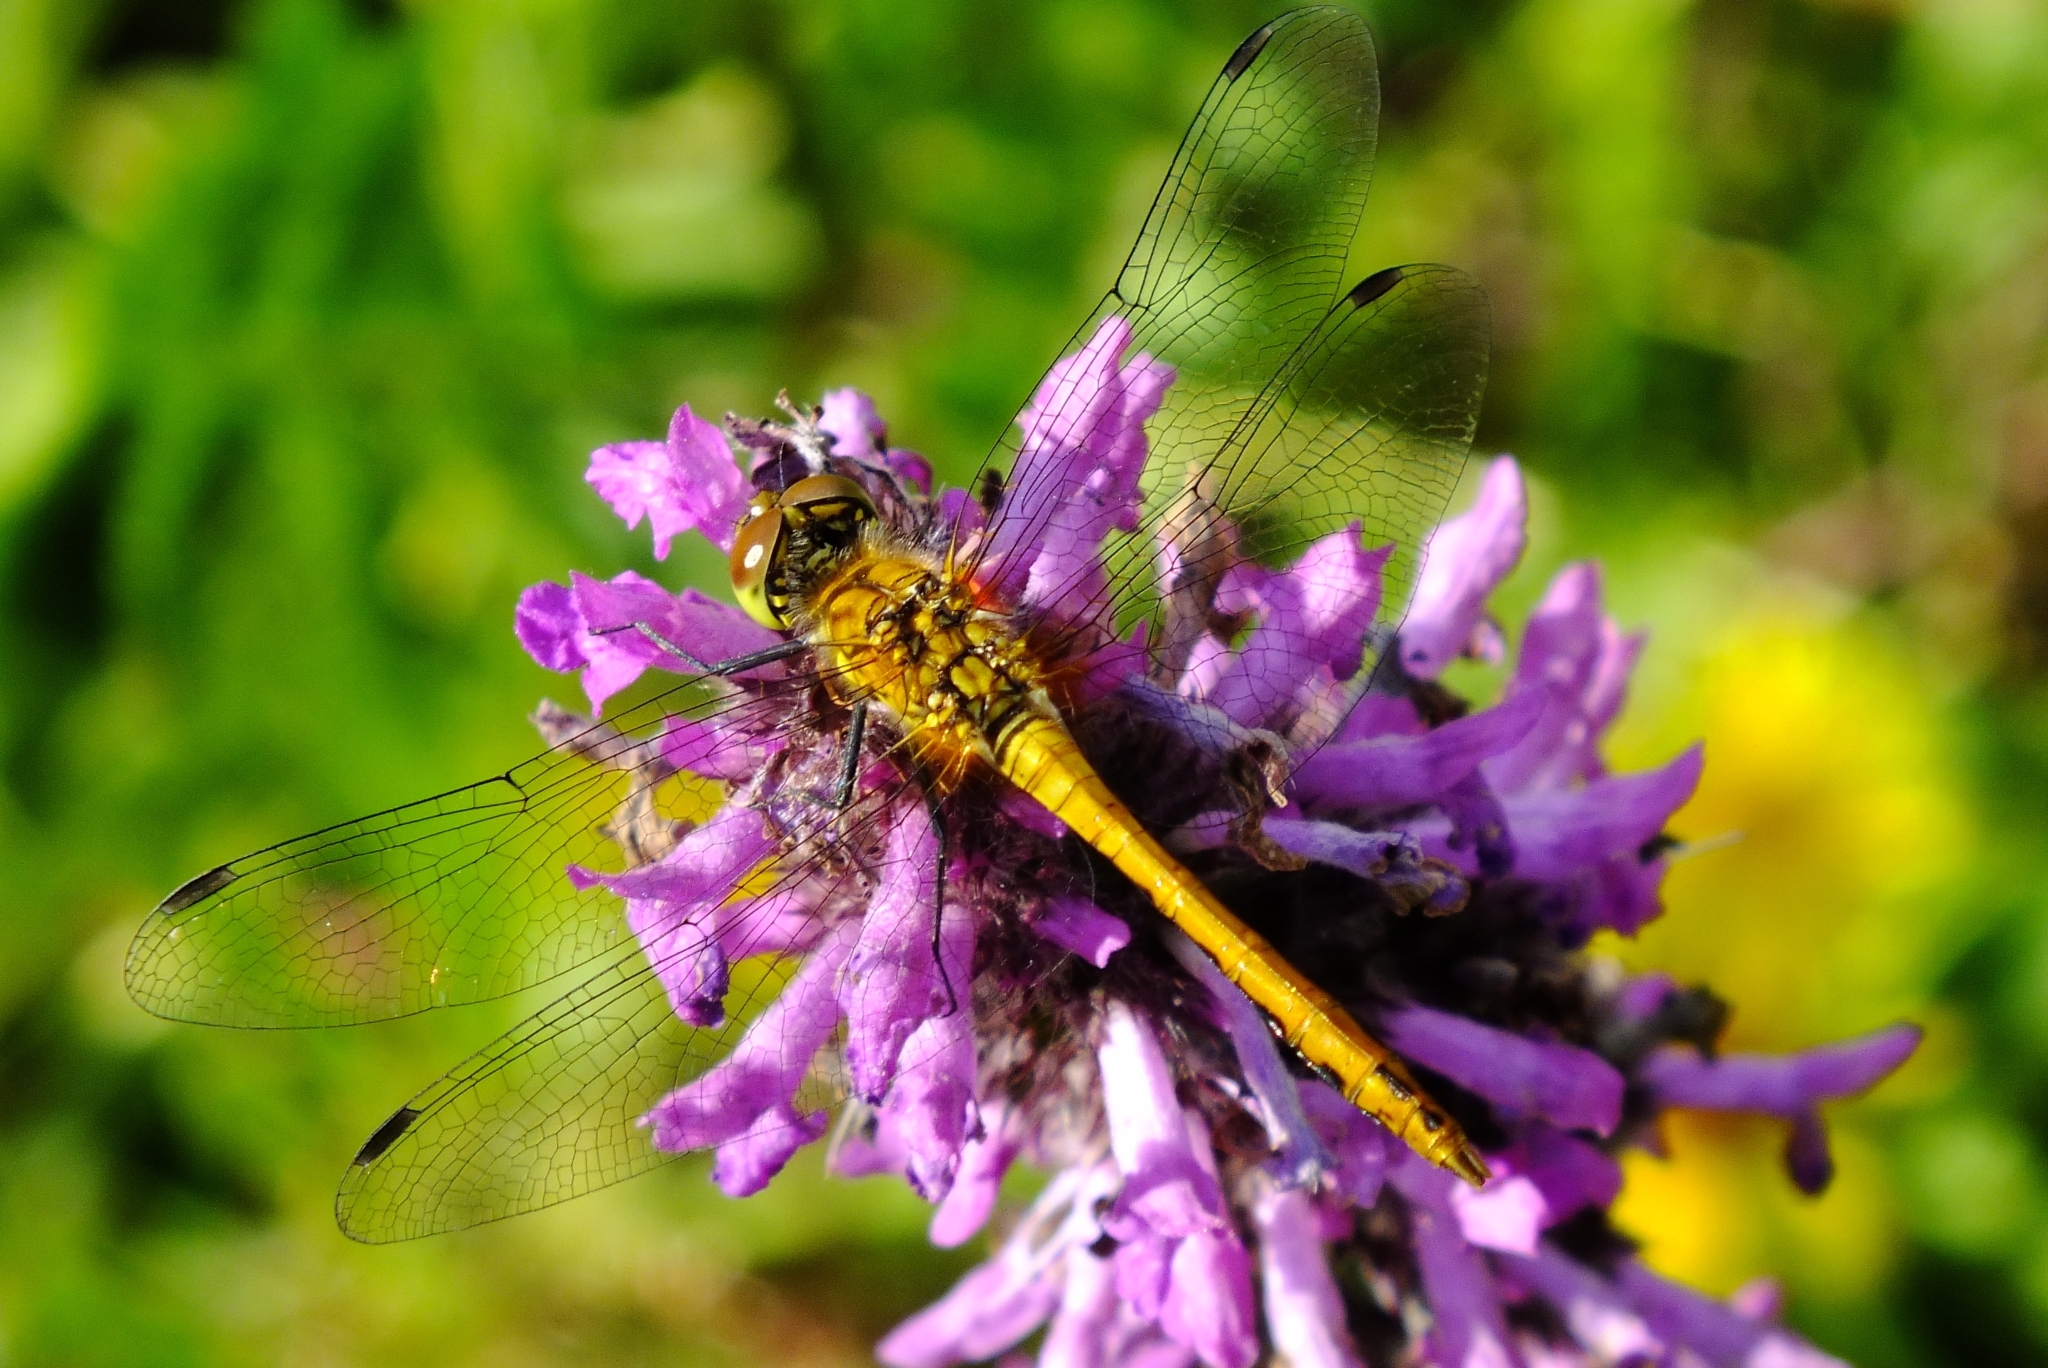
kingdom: Animalia
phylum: Arthropoda
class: Insecta
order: Odonata
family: Libellulidae
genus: Sympetrum
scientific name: Sympetrum sanguineum
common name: Ruddy darter
